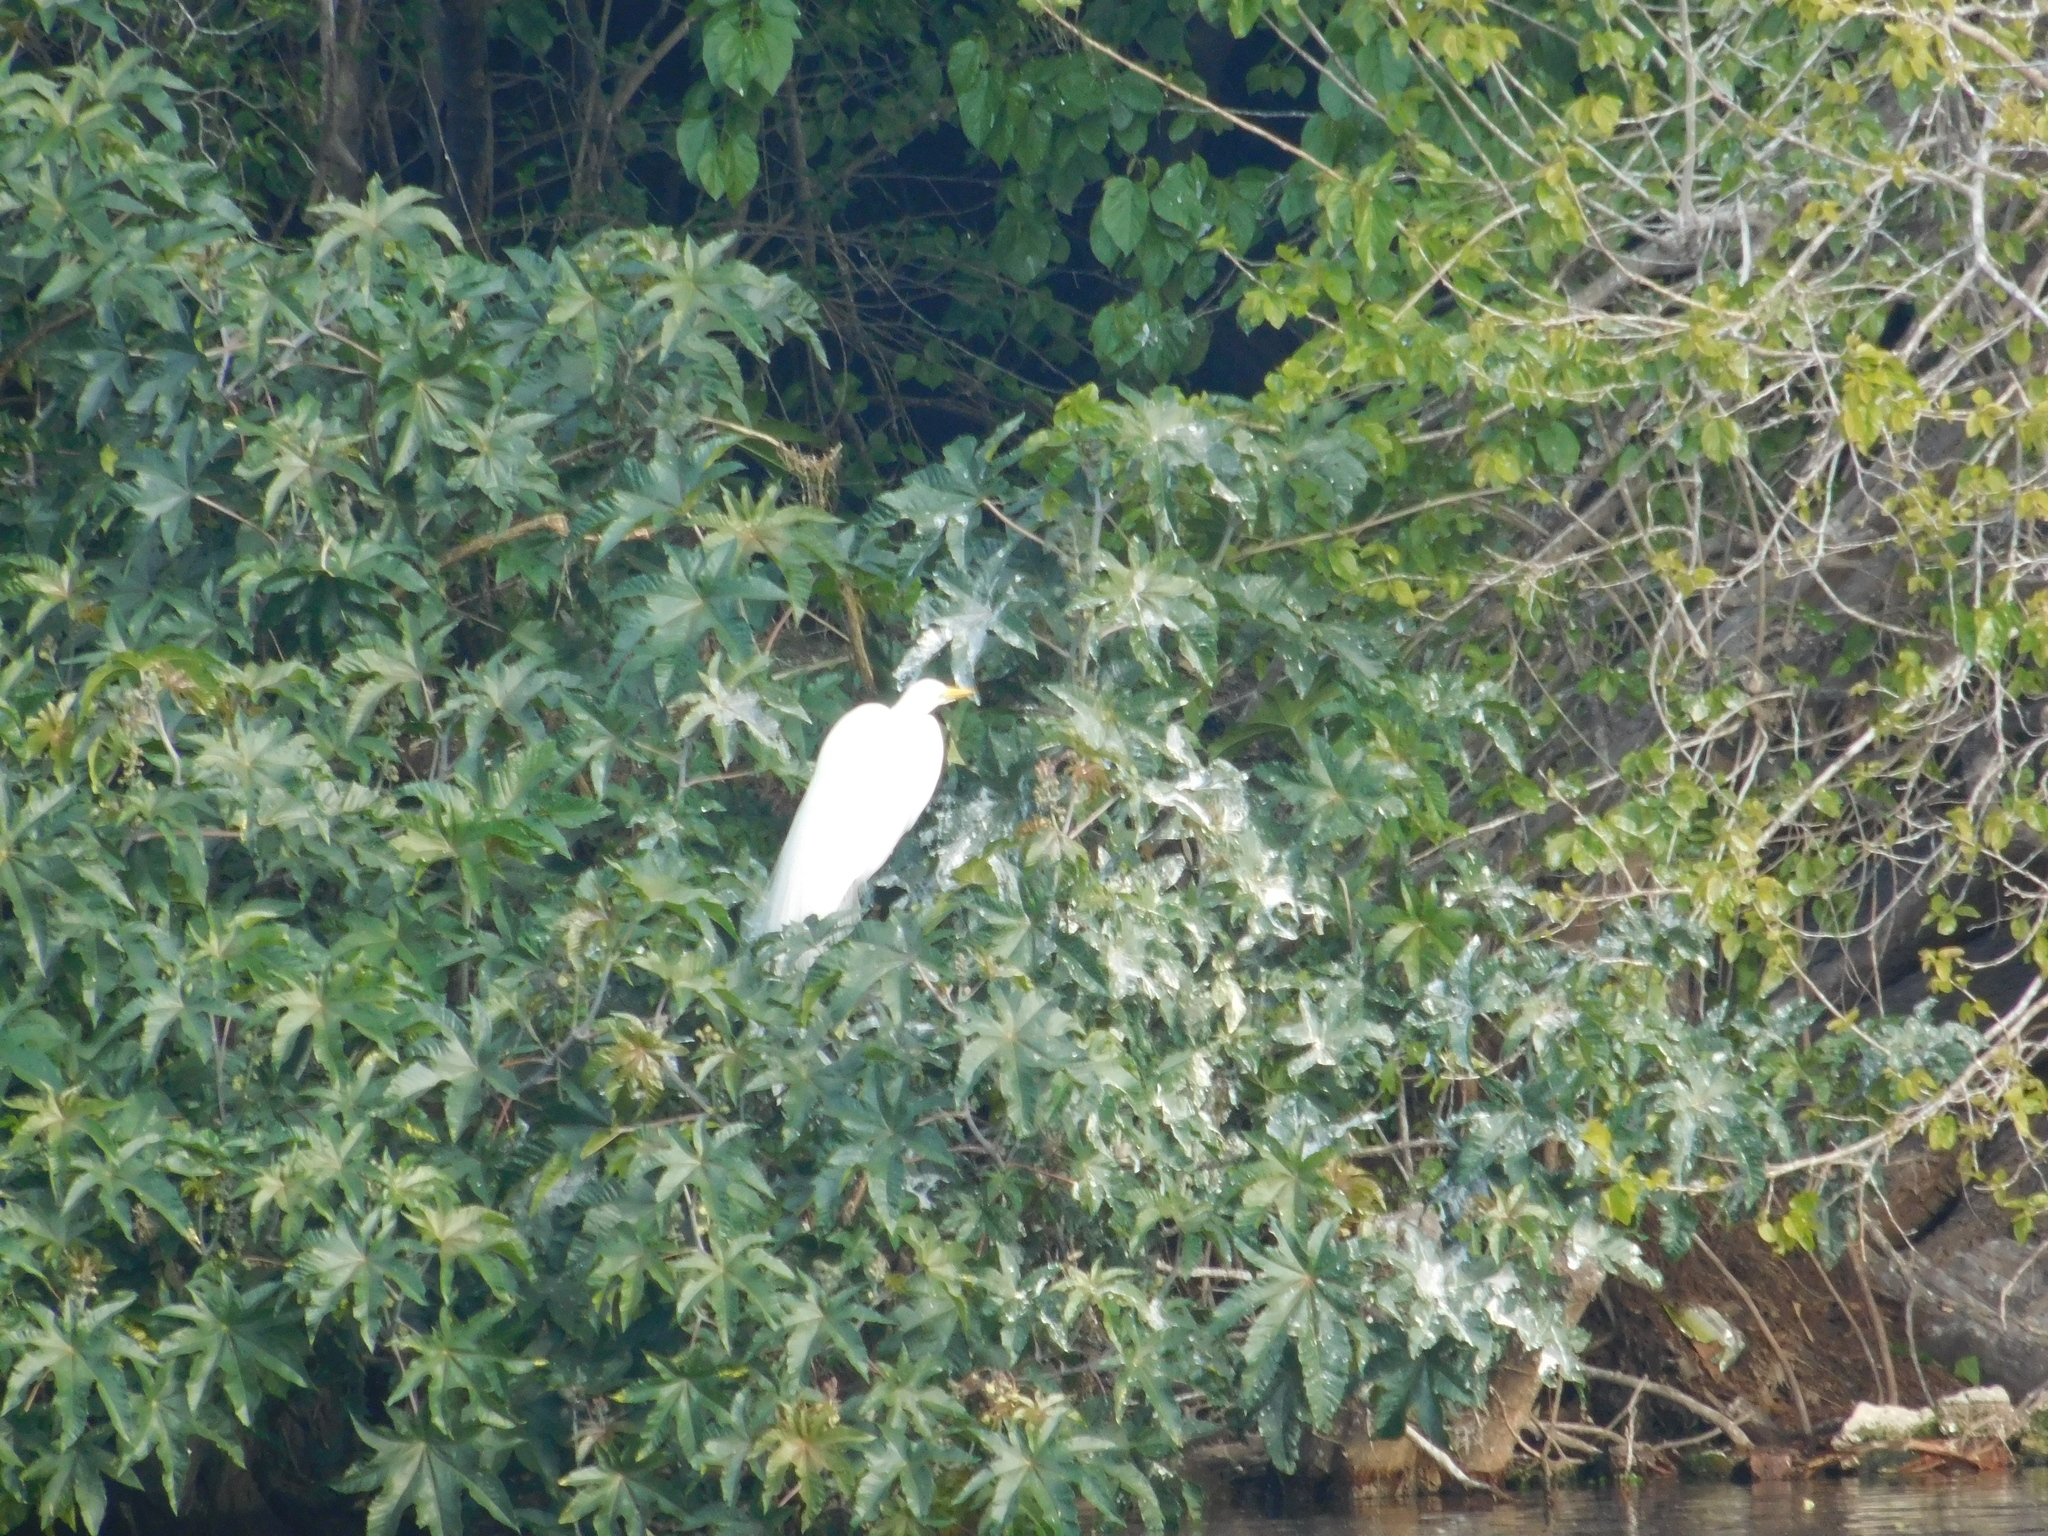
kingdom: Animalia
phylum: Chordata
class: Aves
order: Pelecaniformes
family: Ardeidae
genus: Ardea
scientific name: Ardea alba
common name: Great egret
